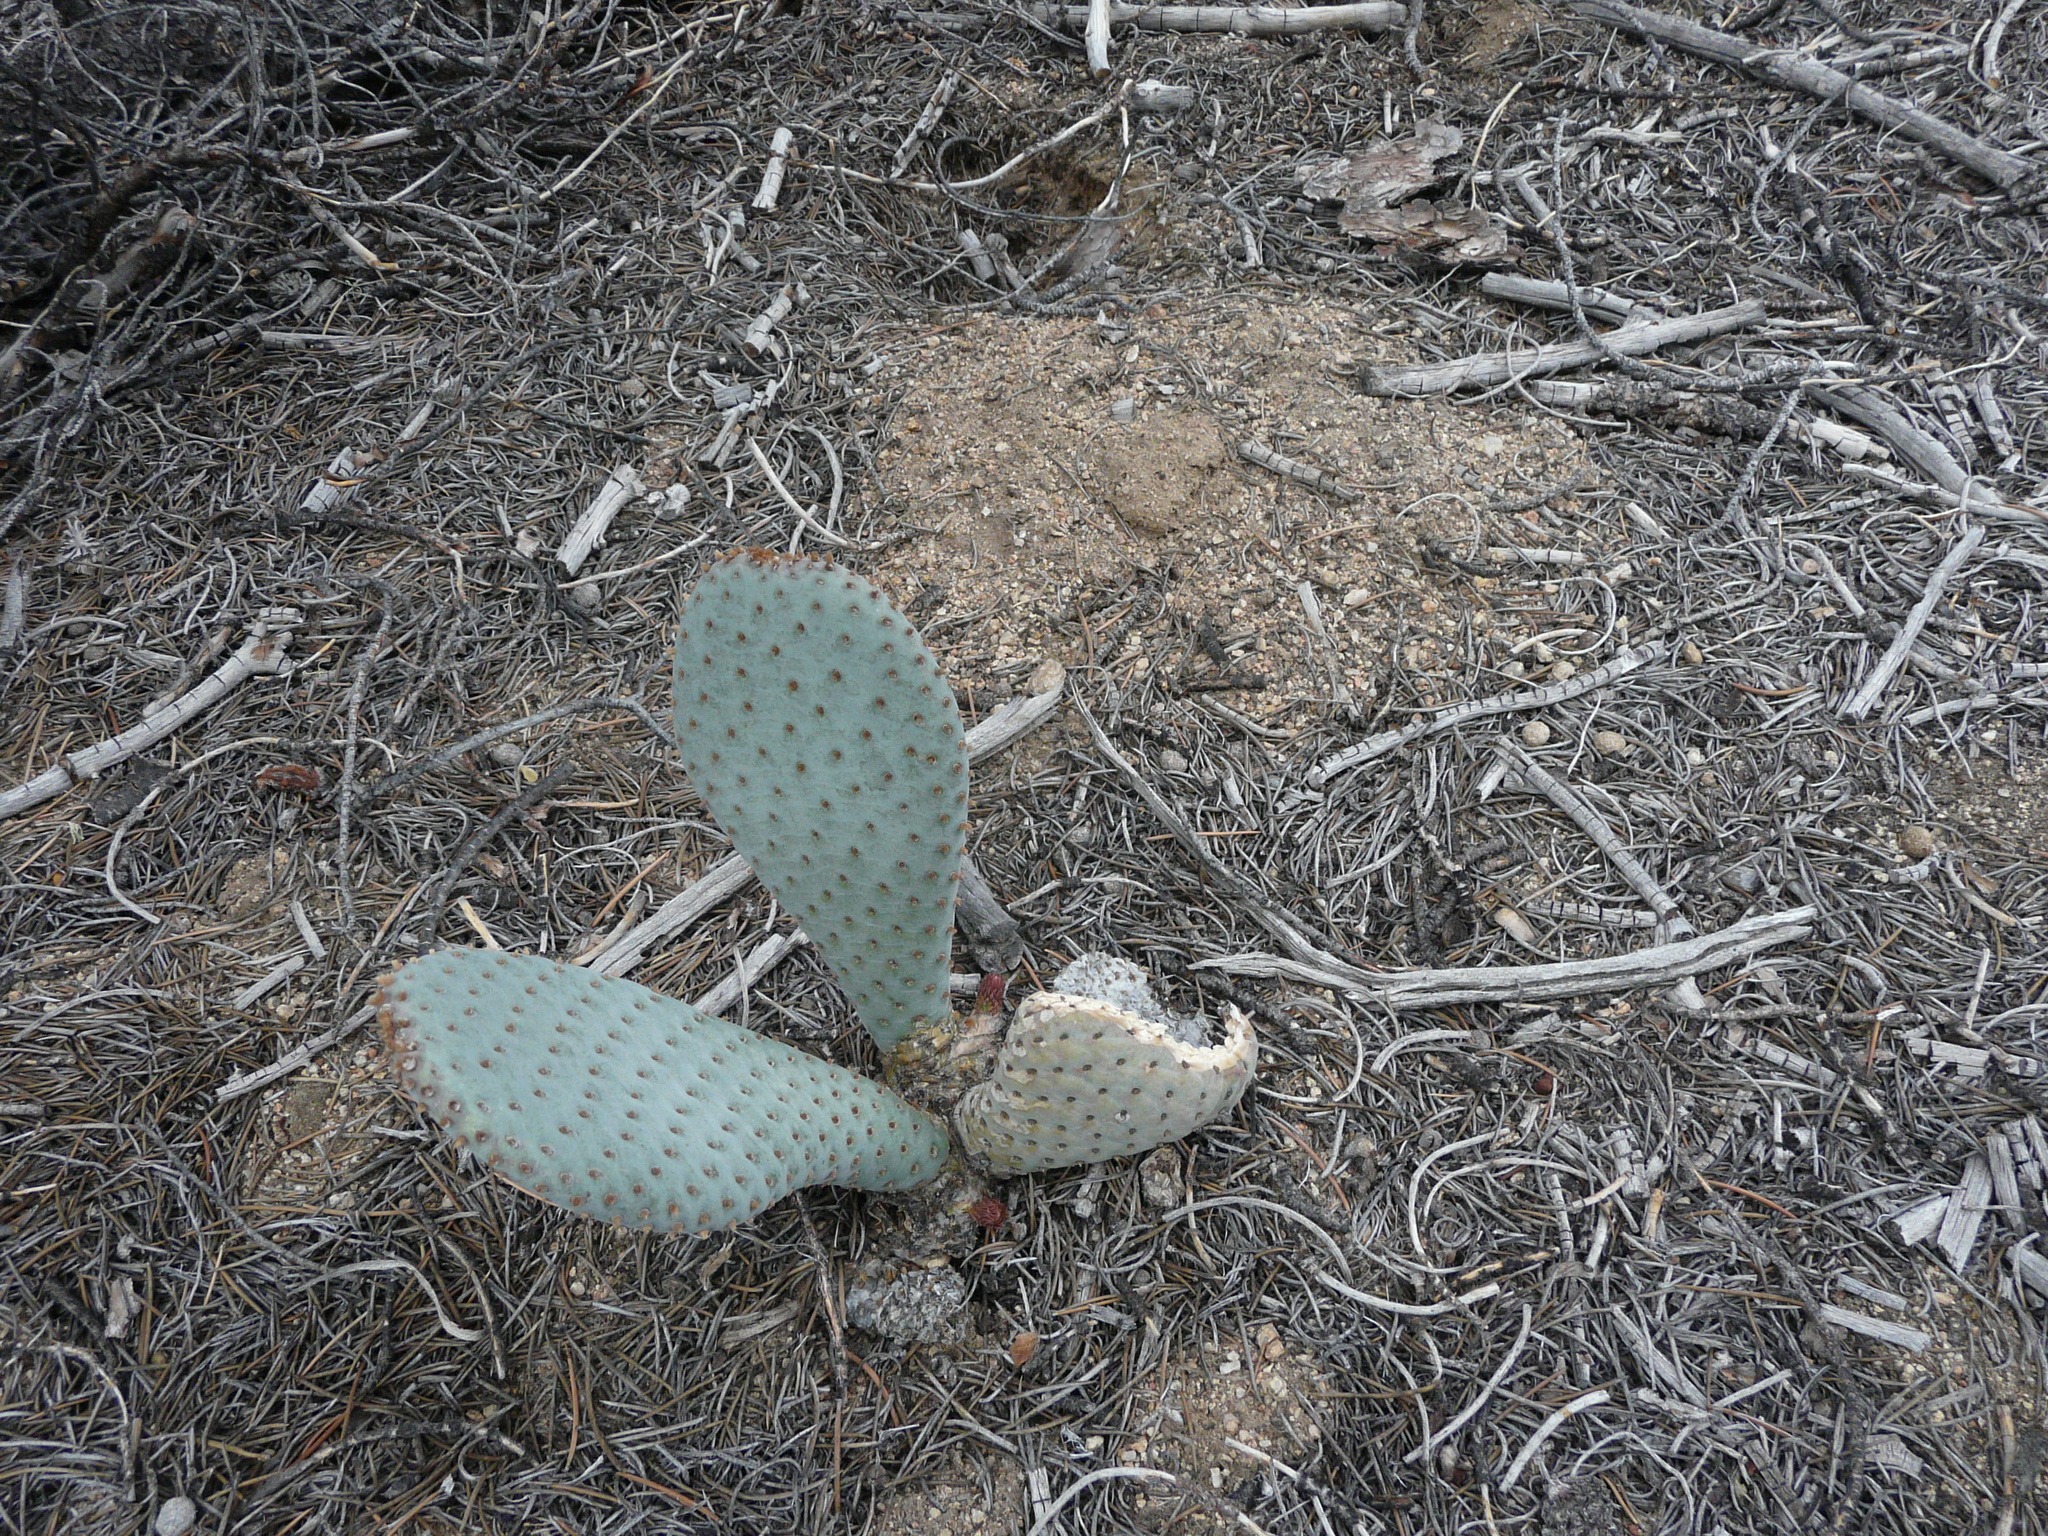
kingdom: Plantae
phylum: Tracheophyta
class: Magnoliopsida
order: Caryophyllales
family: Cactaceae
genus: Opuntia
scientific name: Opuntia basilaris
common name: Beavertail prickly-pear
